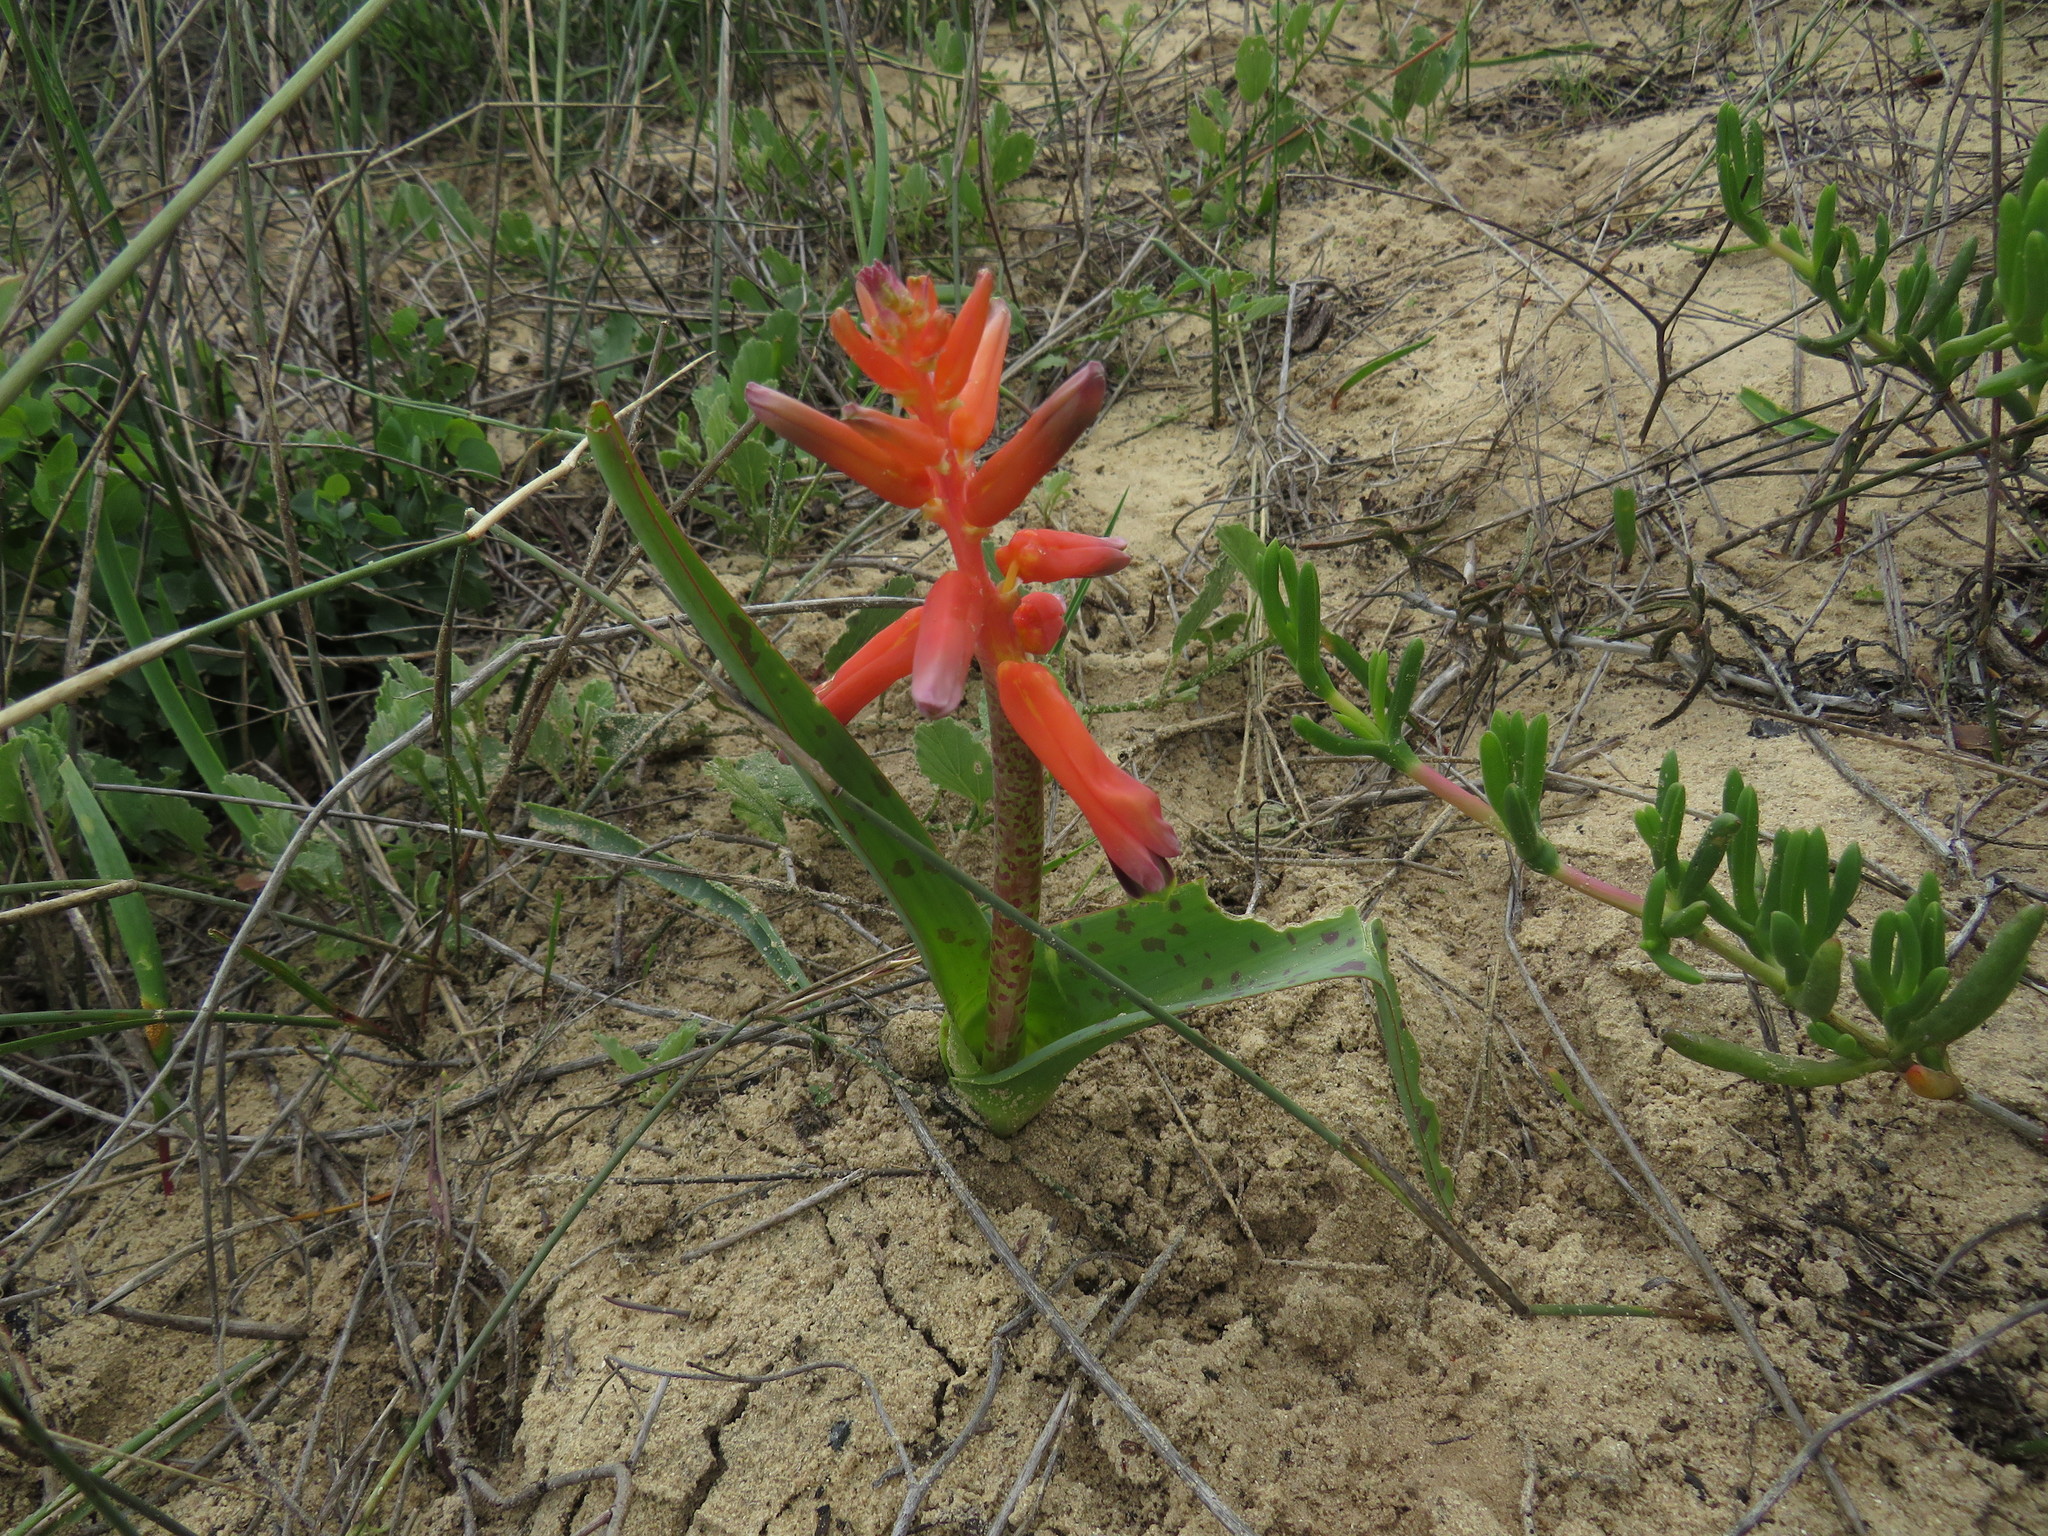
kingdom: Plantae
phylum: Tracheophyta
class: Liliopsida
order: Asparagales
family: Asparagaceae
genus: Lachenalia
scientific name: Lachenalia bulbifera
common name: Red lachenalia
